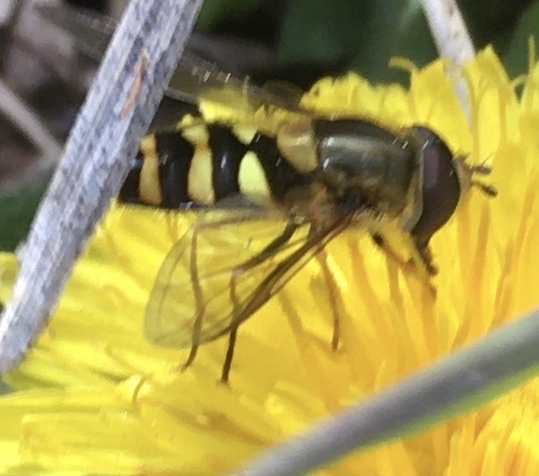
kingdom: Animalia
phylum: Arthropoda
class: Insecta
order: Diptera
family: Syrphidae
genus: Syrphus
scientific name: Syrphus opinator
